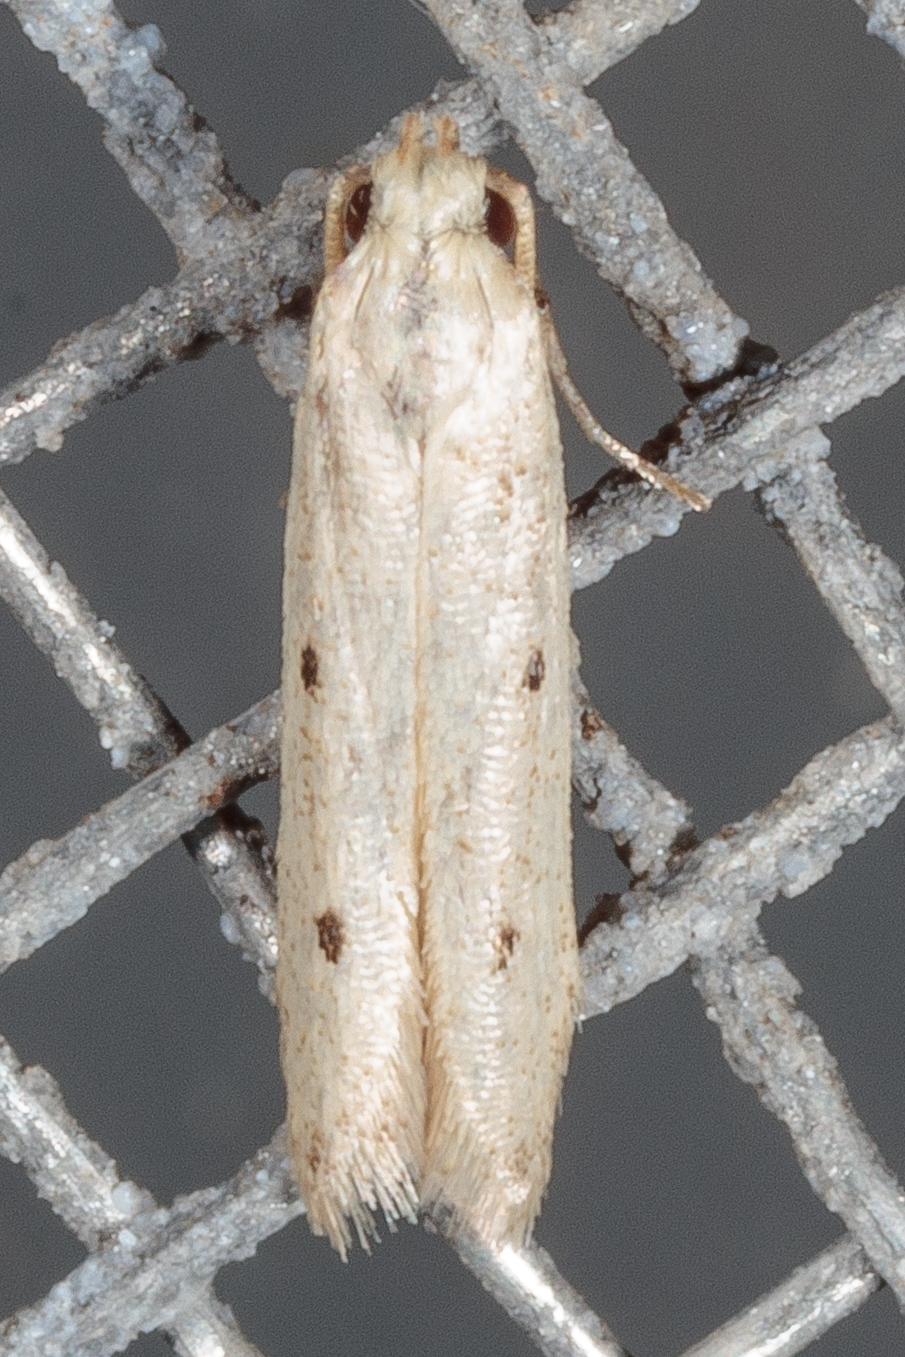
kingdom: Animalia
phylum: Arthropoda
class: Insecta
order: Lepidoptera
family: Gelechiidae
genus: Numata
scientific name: Numata bipunctella
